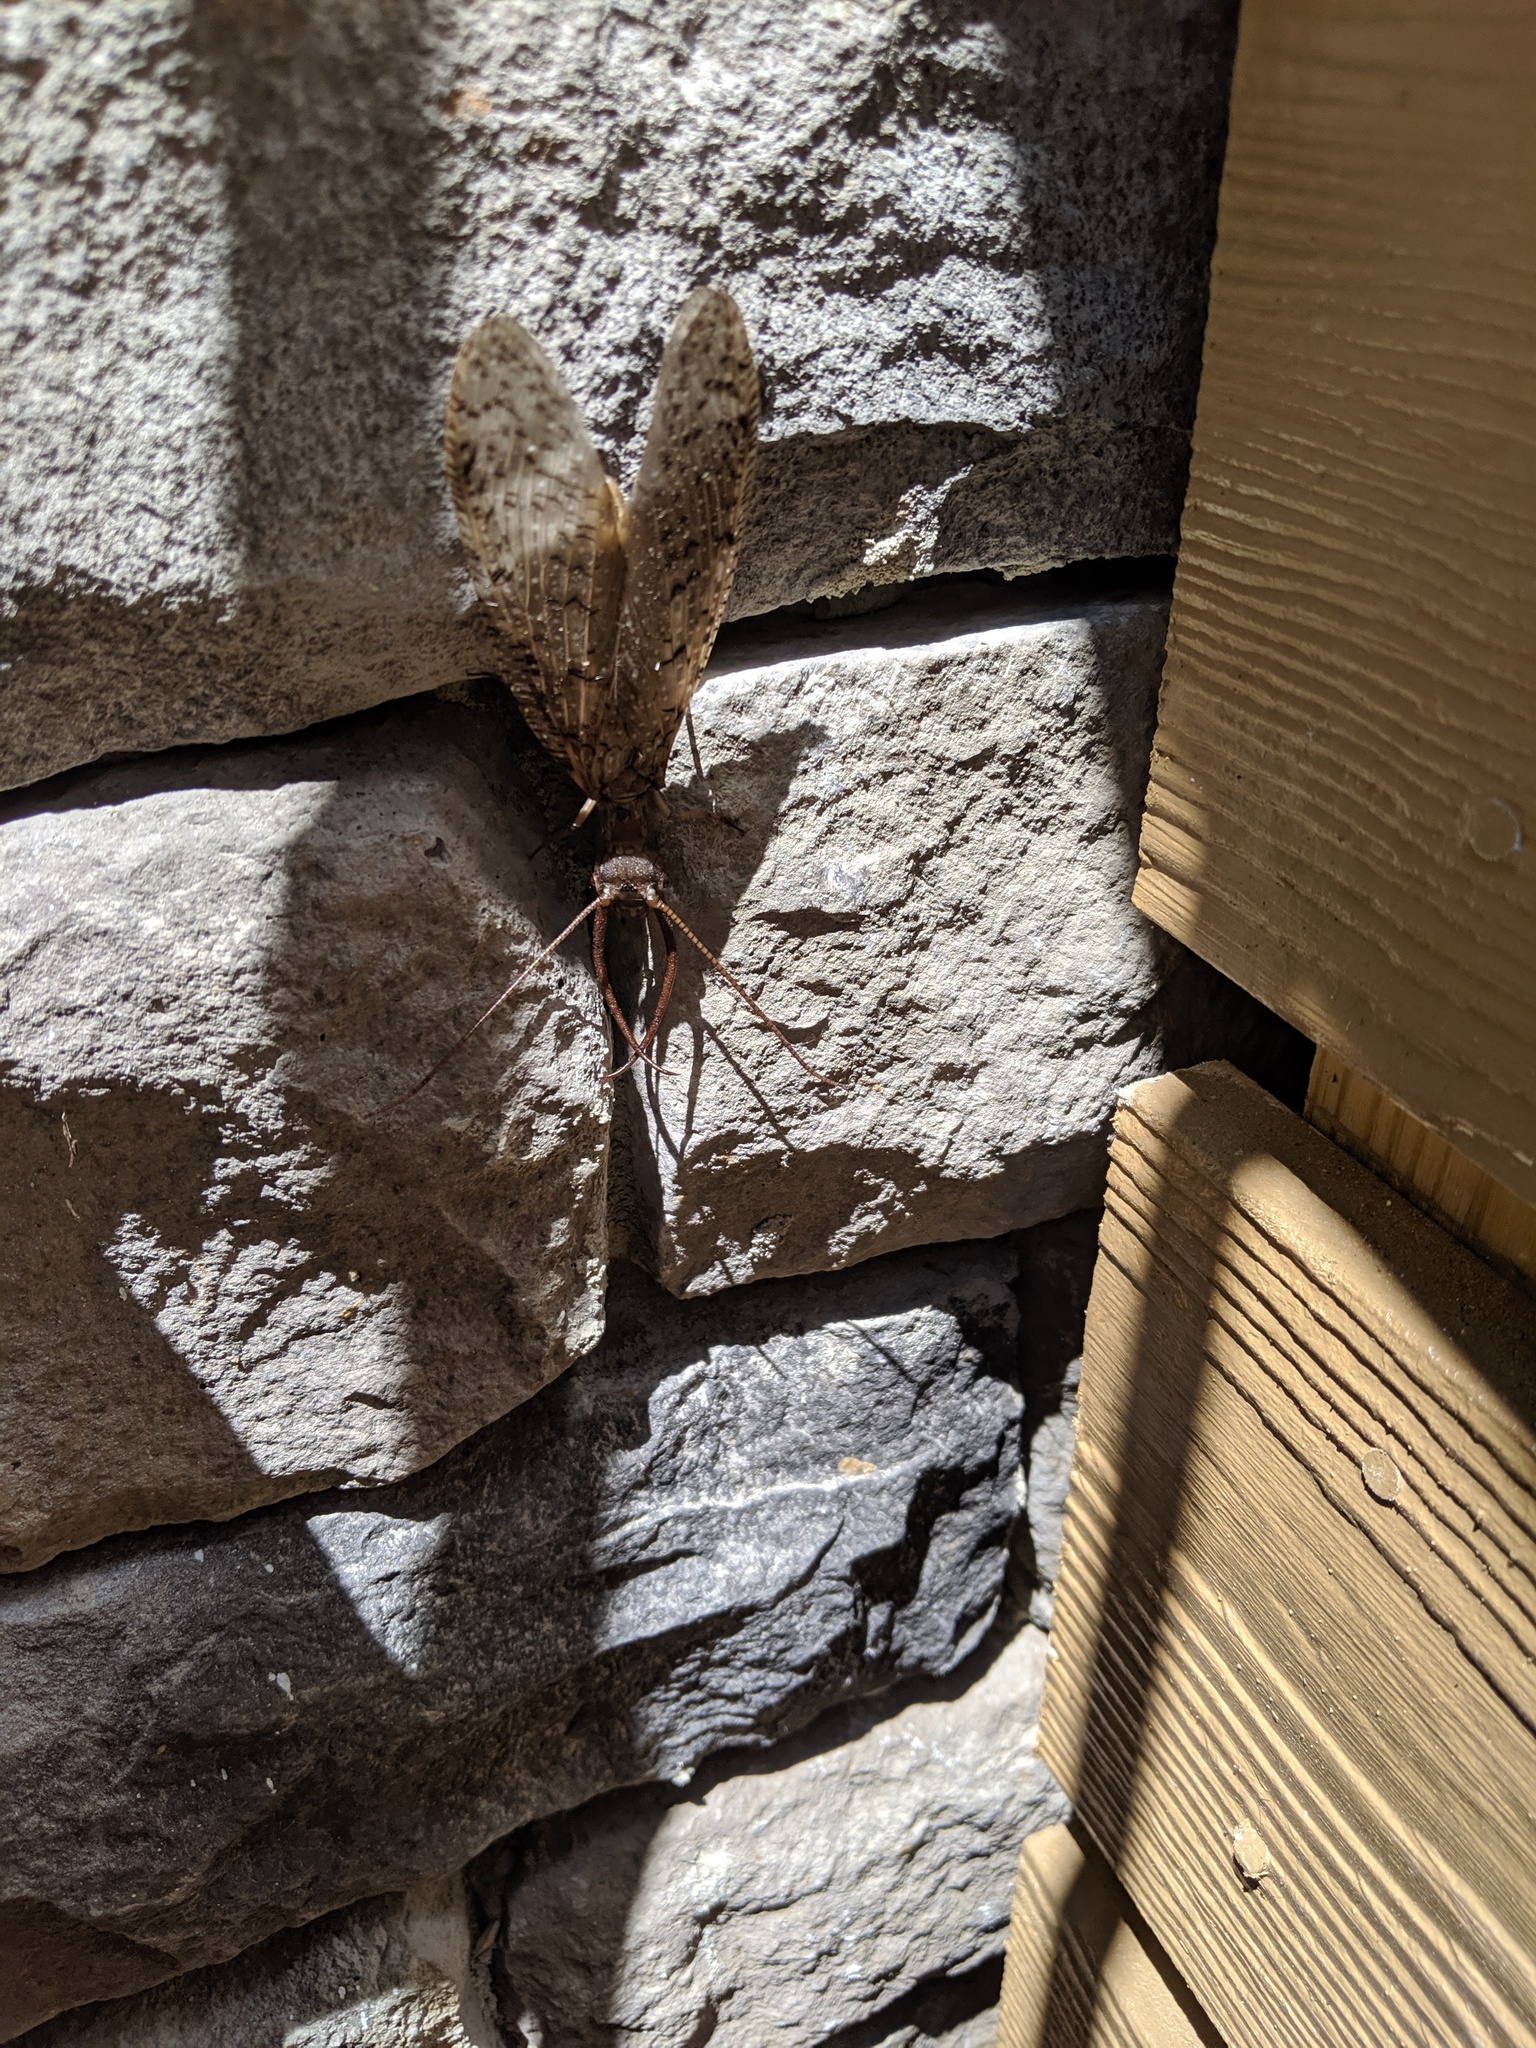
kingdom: Animalia
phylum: Arthropoda
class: Insecta
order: Megaloptera
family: Corydalidae
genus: Corydalus
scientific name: Corydalus cornutus
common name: Dobsonfly
